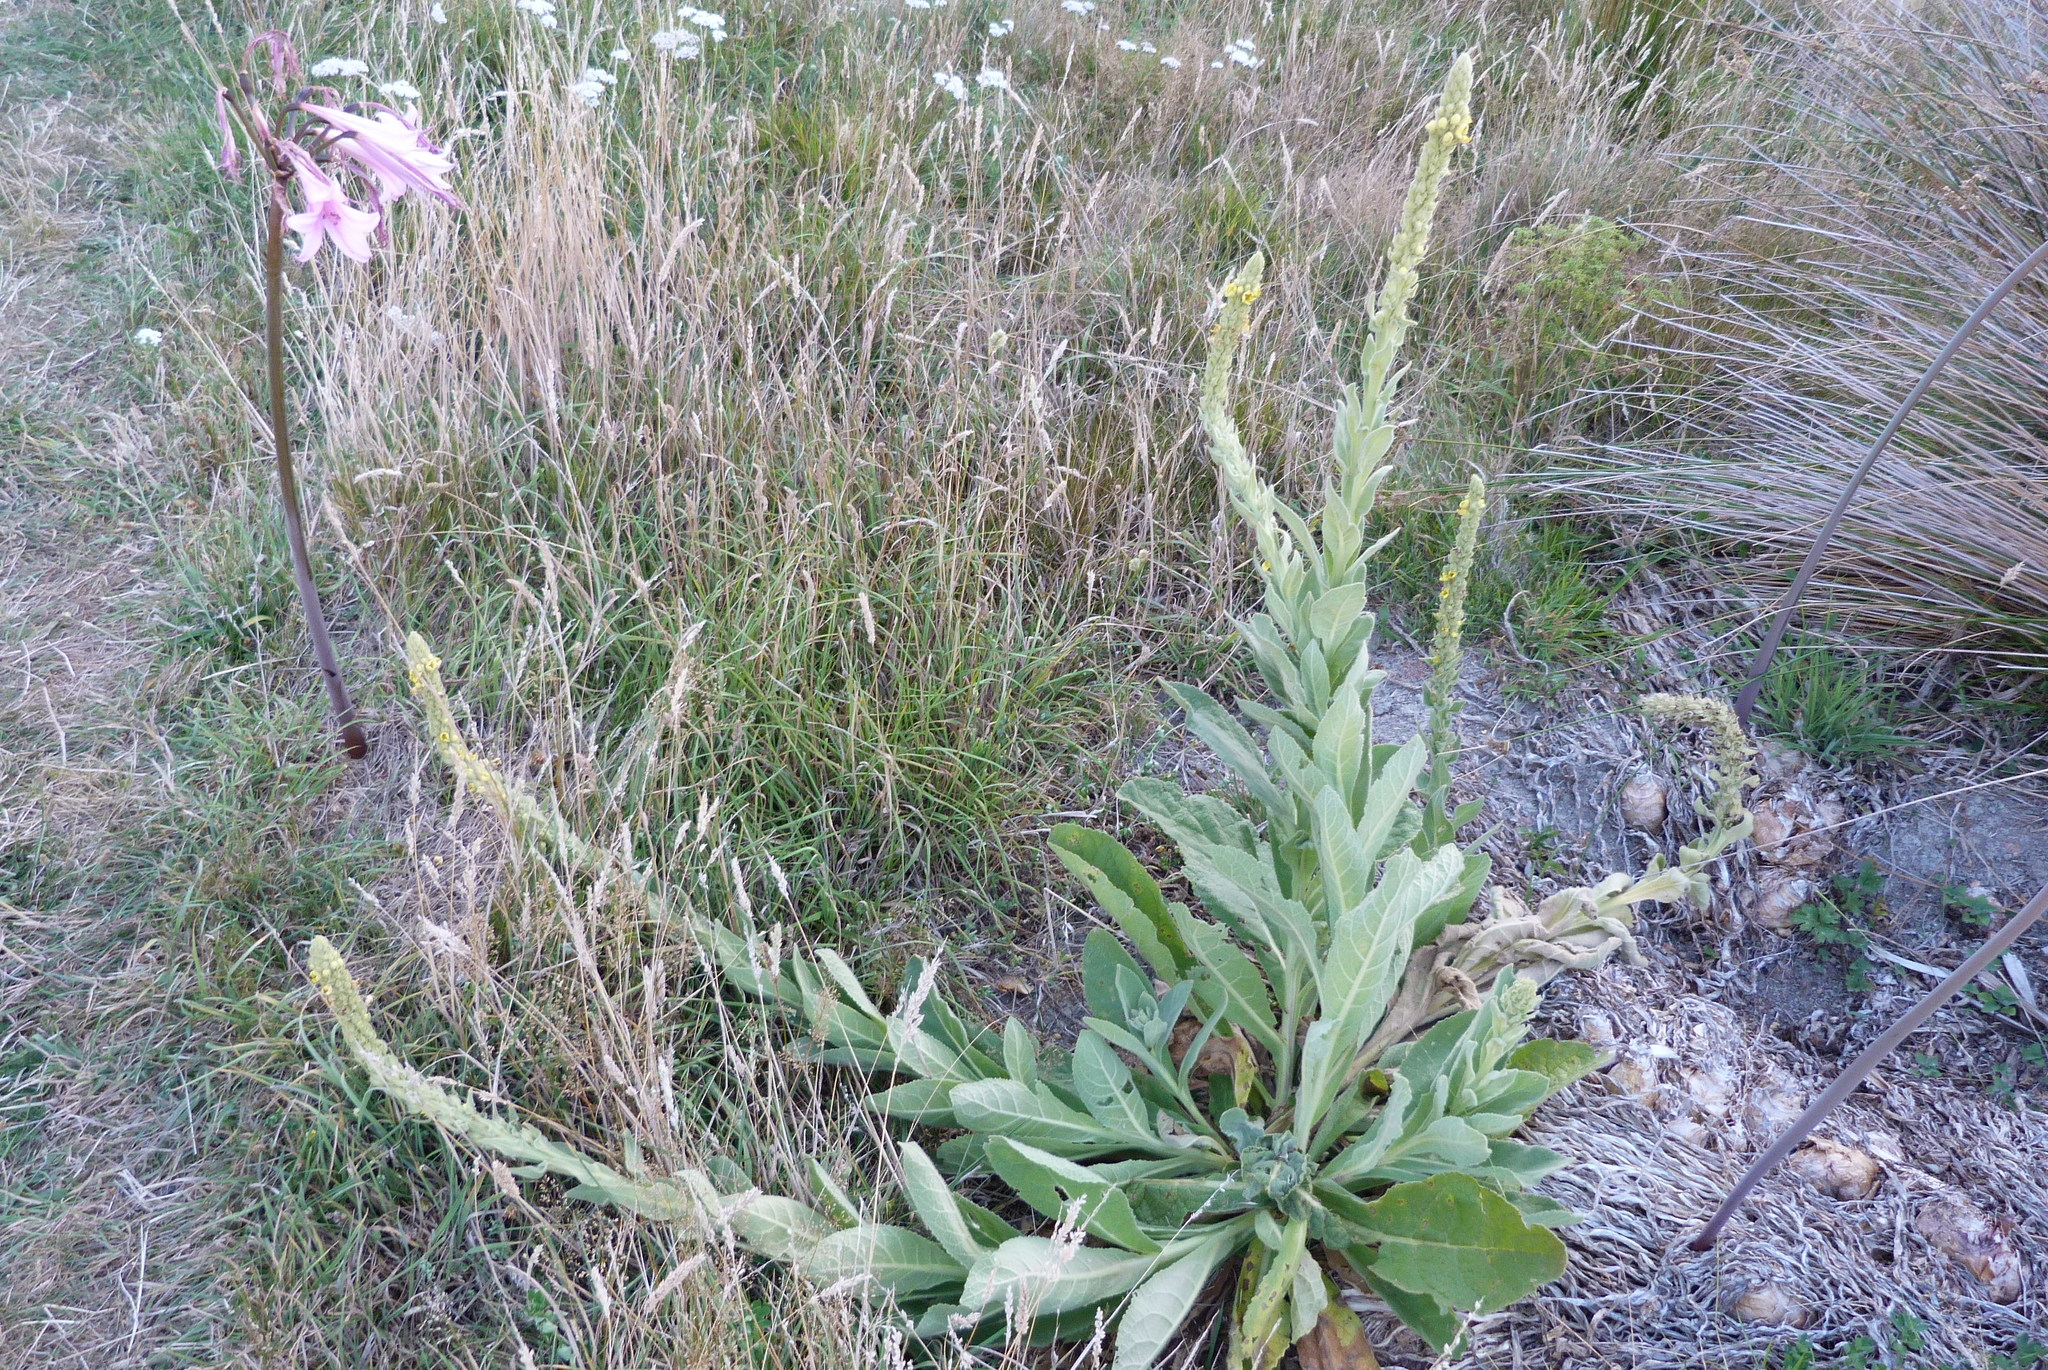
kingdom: Plantae
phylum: Tracheophyta
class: Magnoliopsida
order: Lamiales
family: Scrophulariaceae
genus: Verbascum
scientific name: Verbascum thapsus
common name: Common mullein
